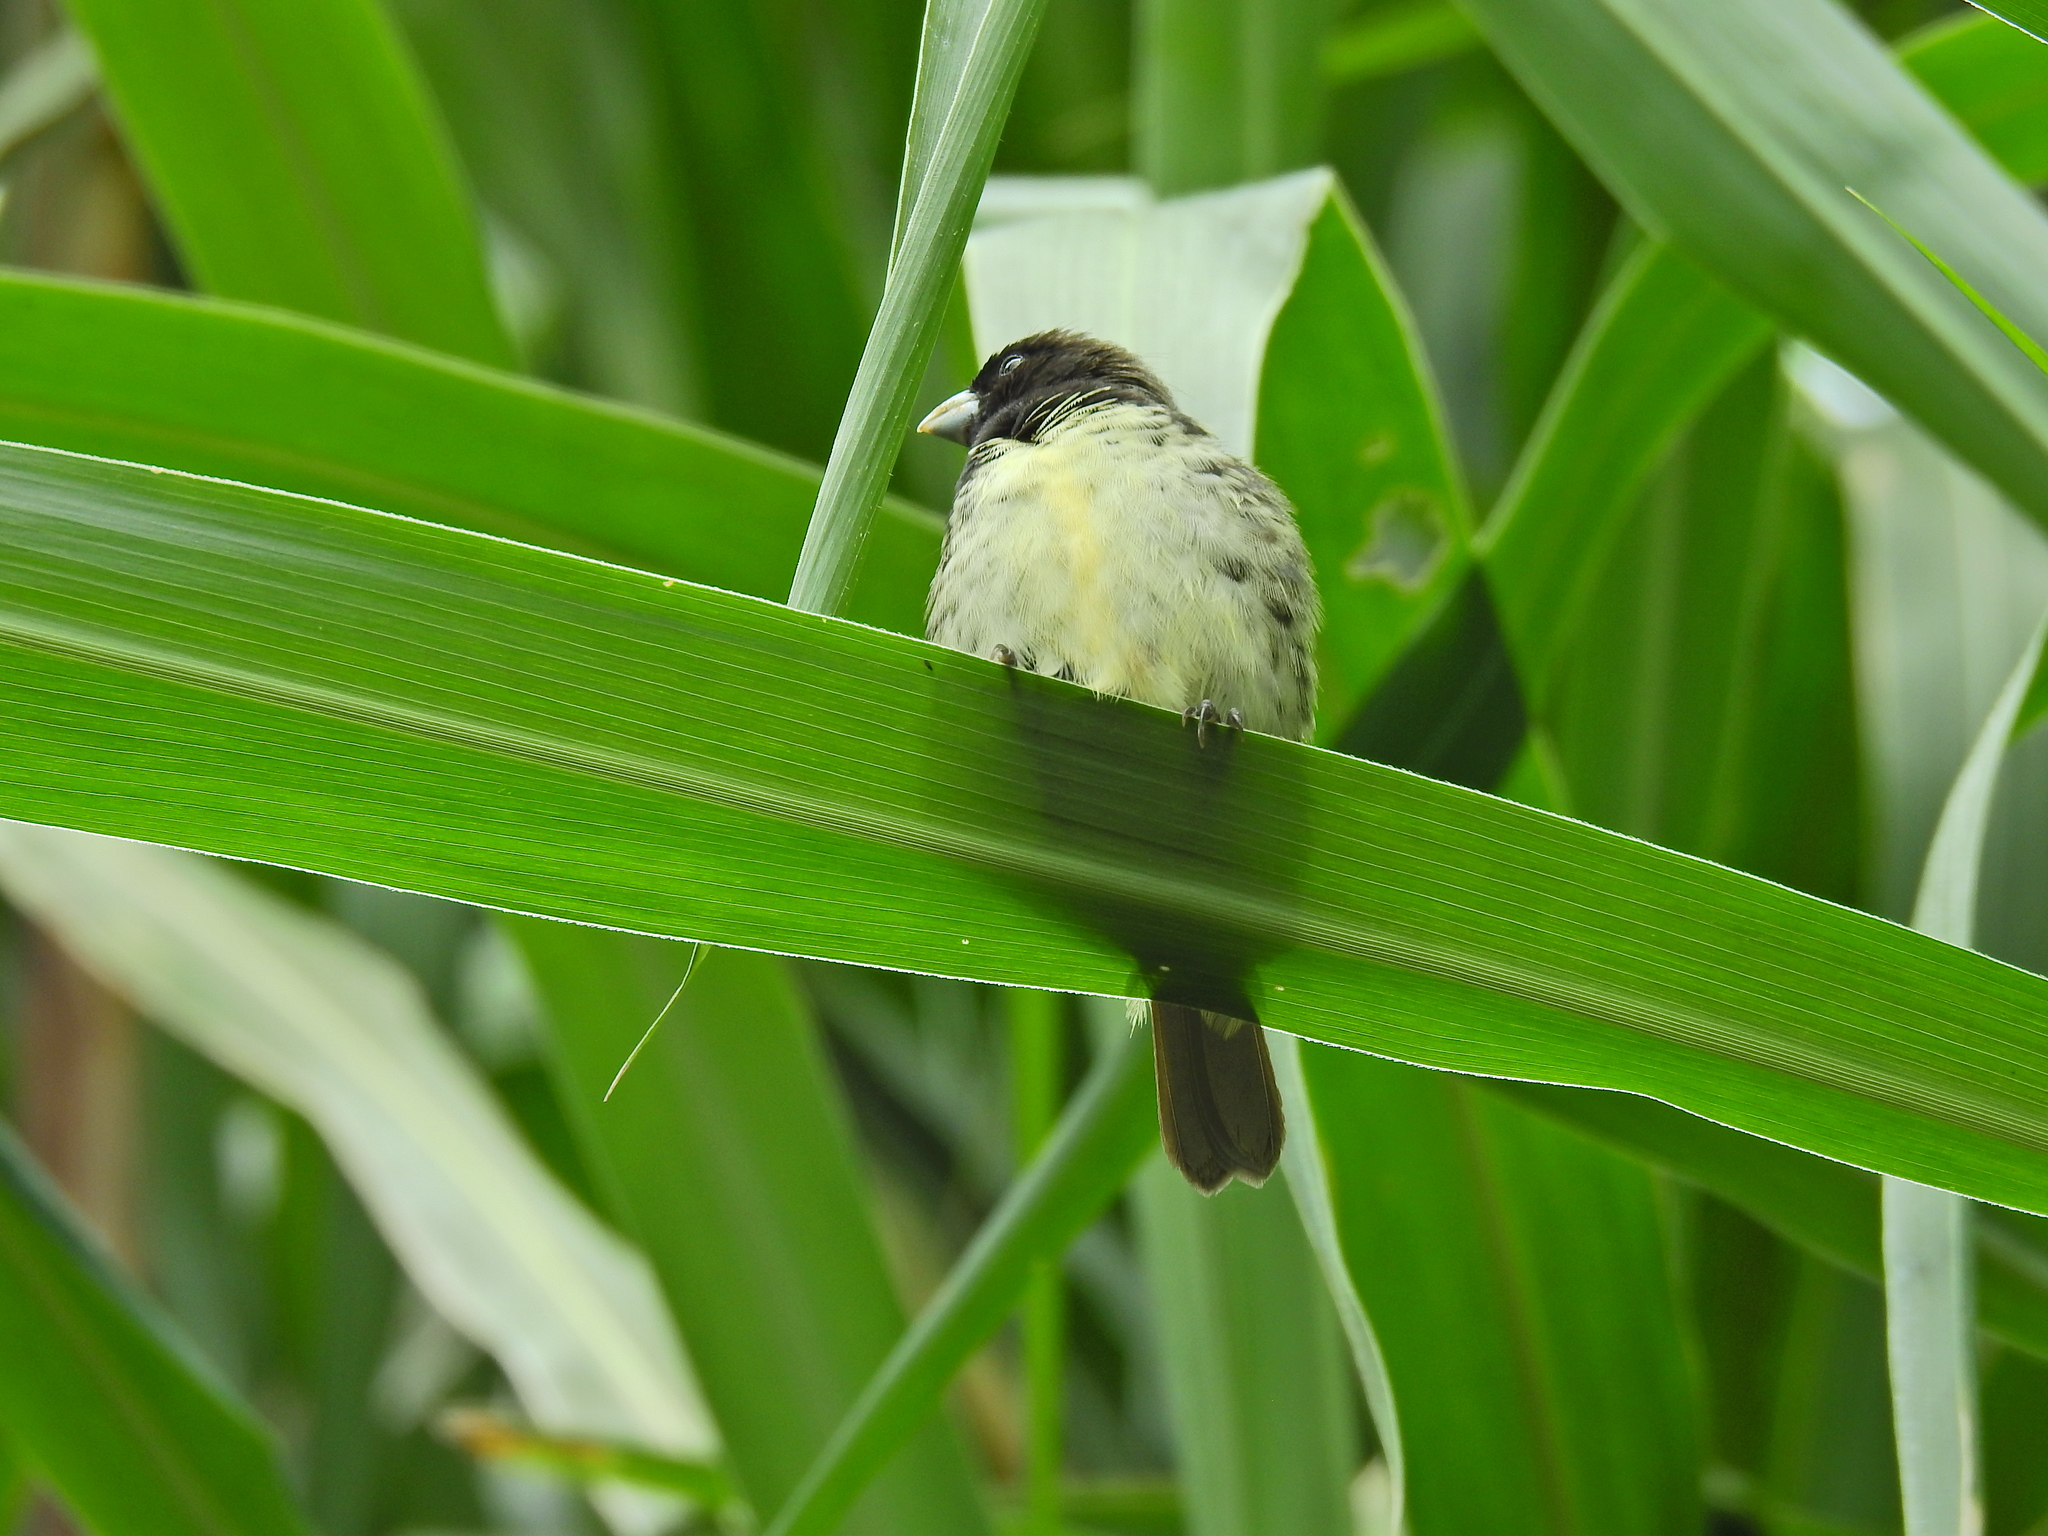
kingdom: Animalia
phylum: Chordata
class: Aves
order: Passeriformes
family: Thraupidae
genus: Sporophila
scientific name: Sporophila nigricollis
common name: Yellow-bellied seedeater
